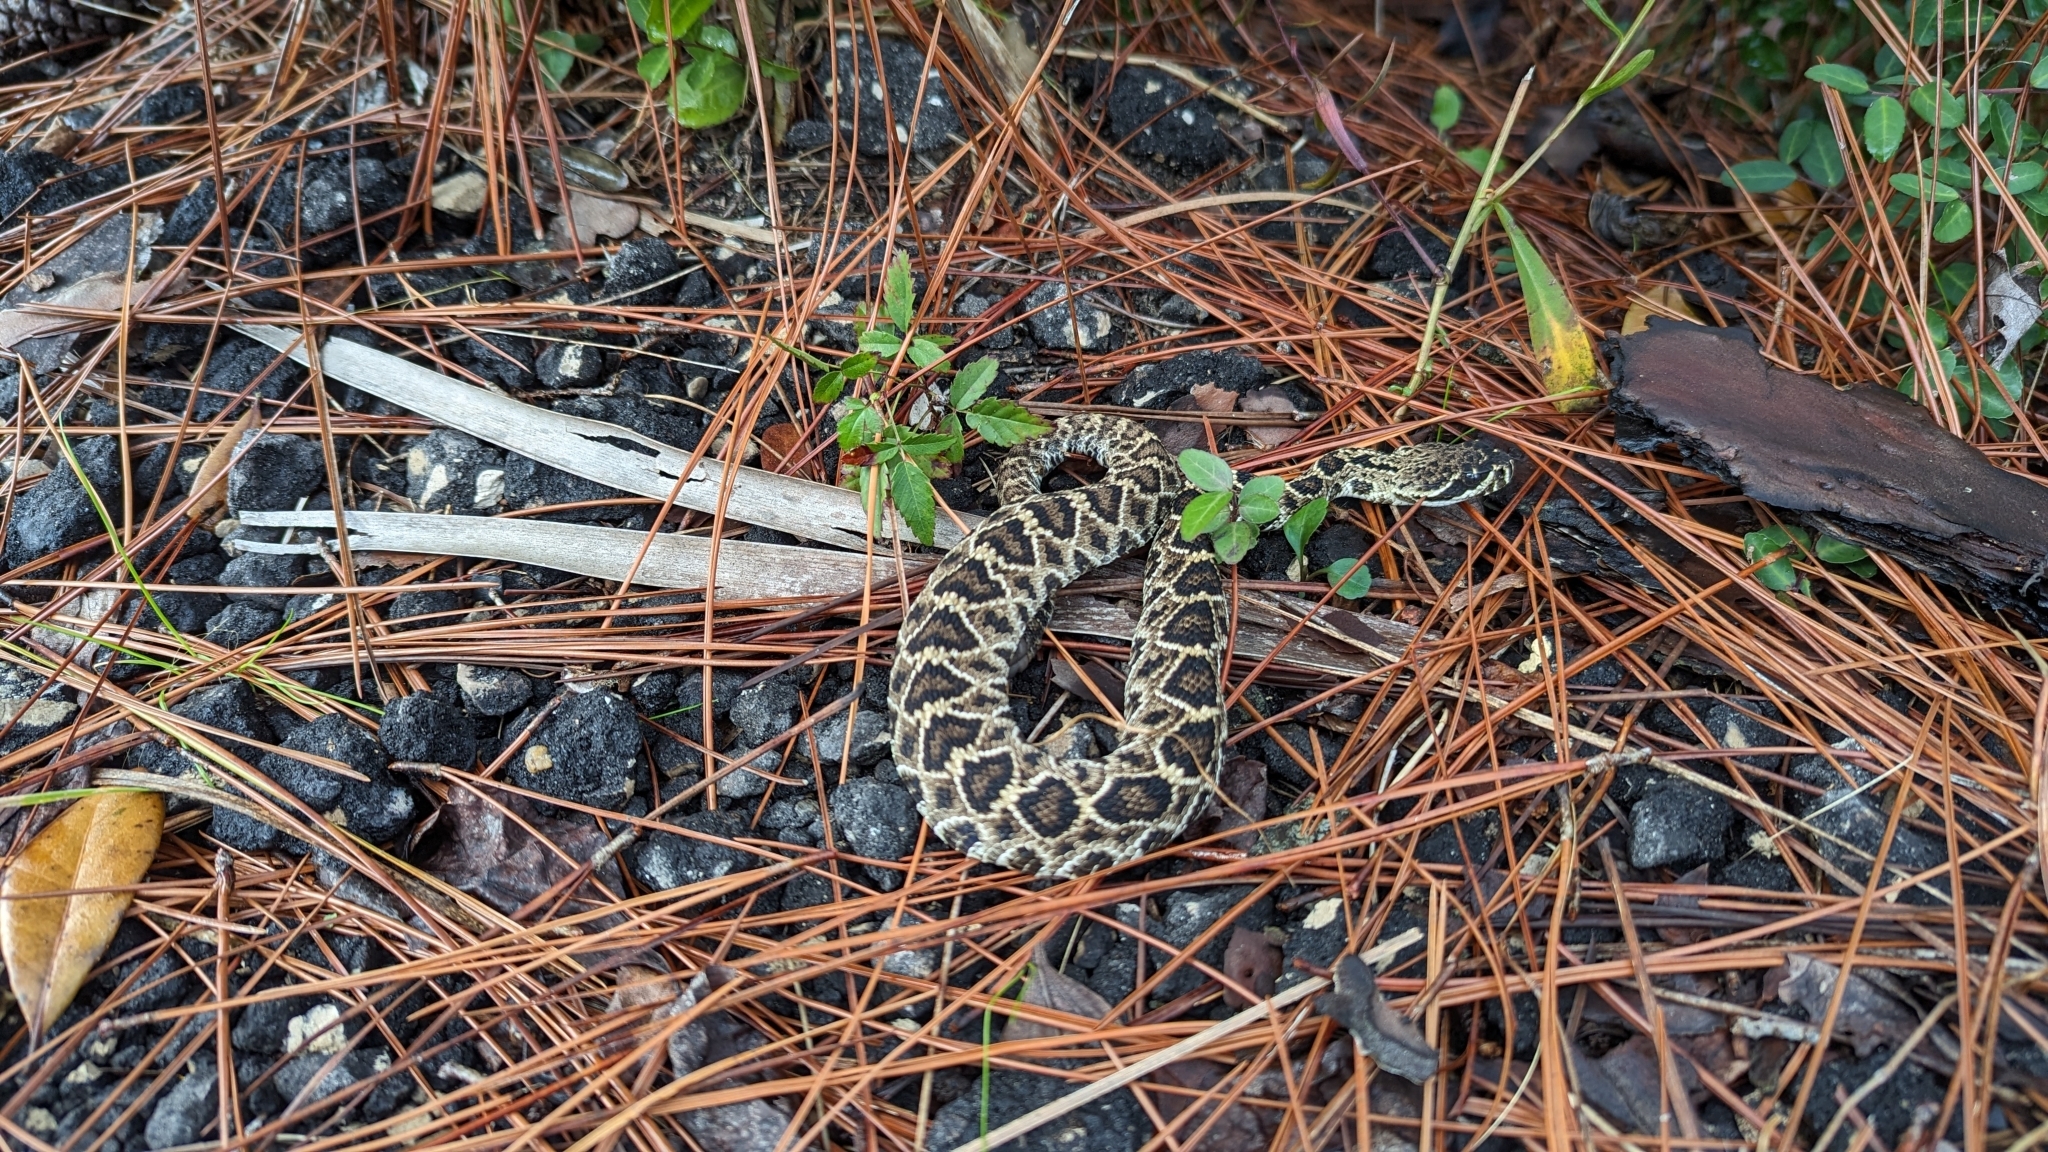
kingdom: Animalia
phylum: Chordata
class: Squamata
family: Viperidae
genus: Crotalus
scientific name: Crotalus adamanteus
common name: Eastern diamondback rattlesnake
